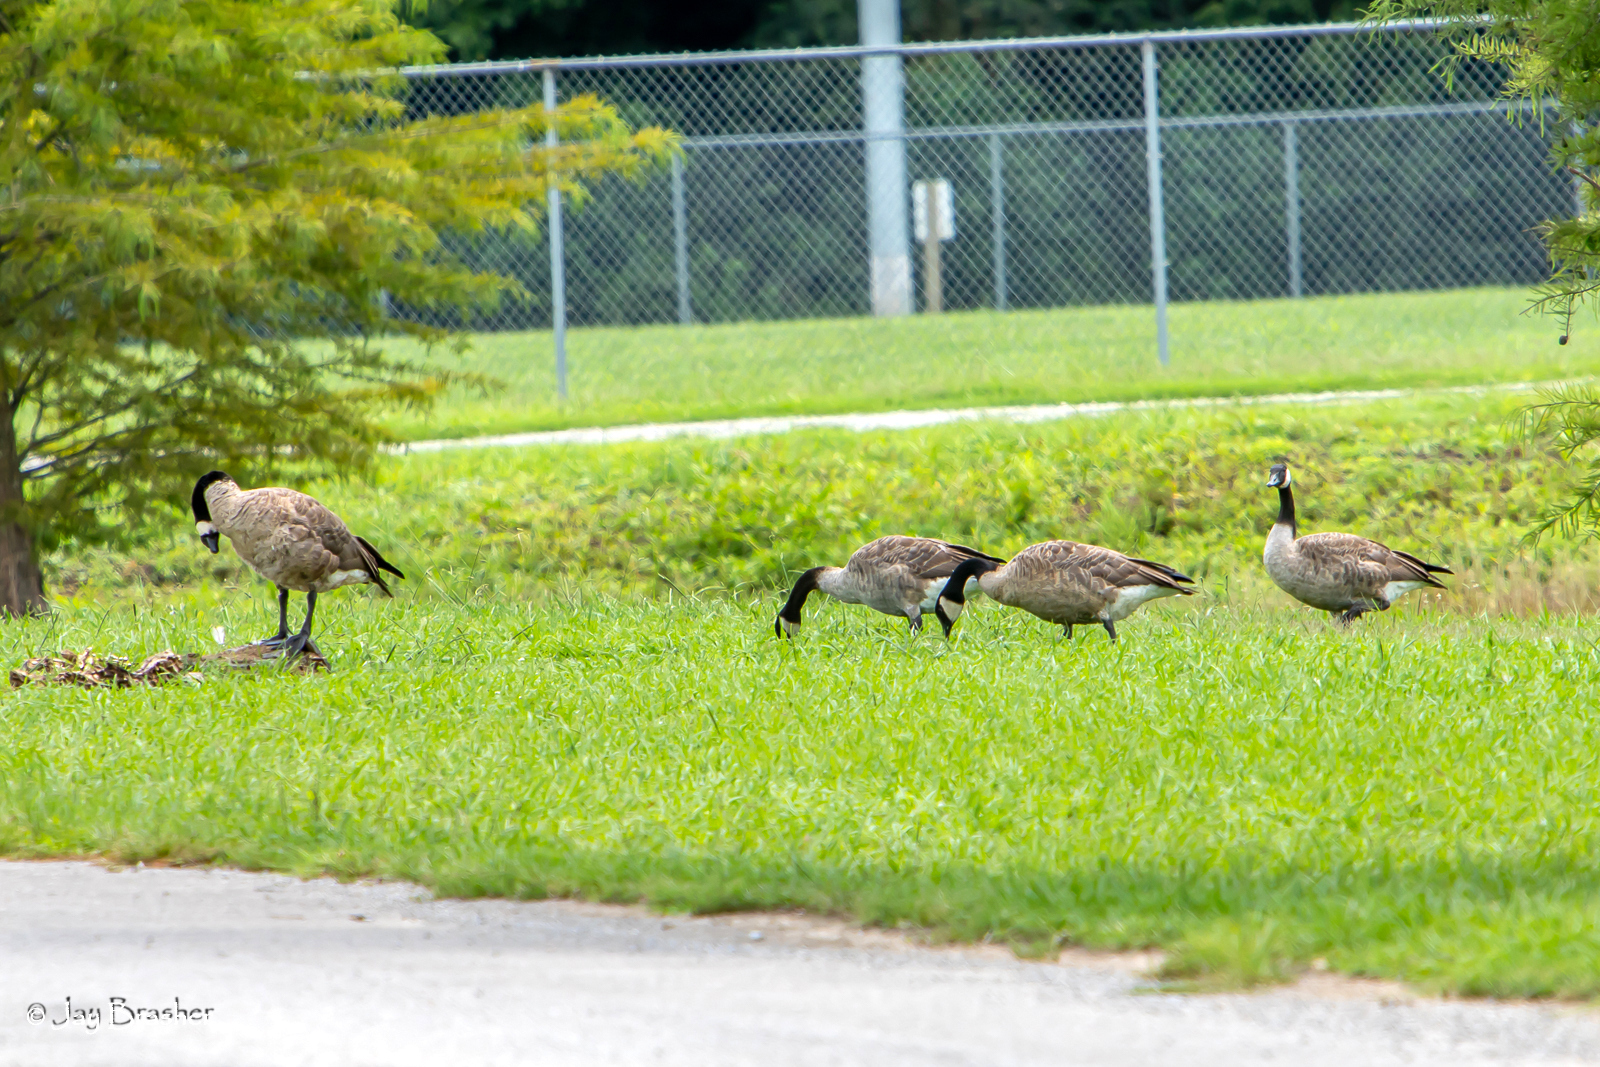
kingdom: Animalia
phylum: Chordata
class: Aves
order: Anseriformes
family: Anatidae
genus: Branta
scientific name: Branta canadensis
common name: Canada goose
